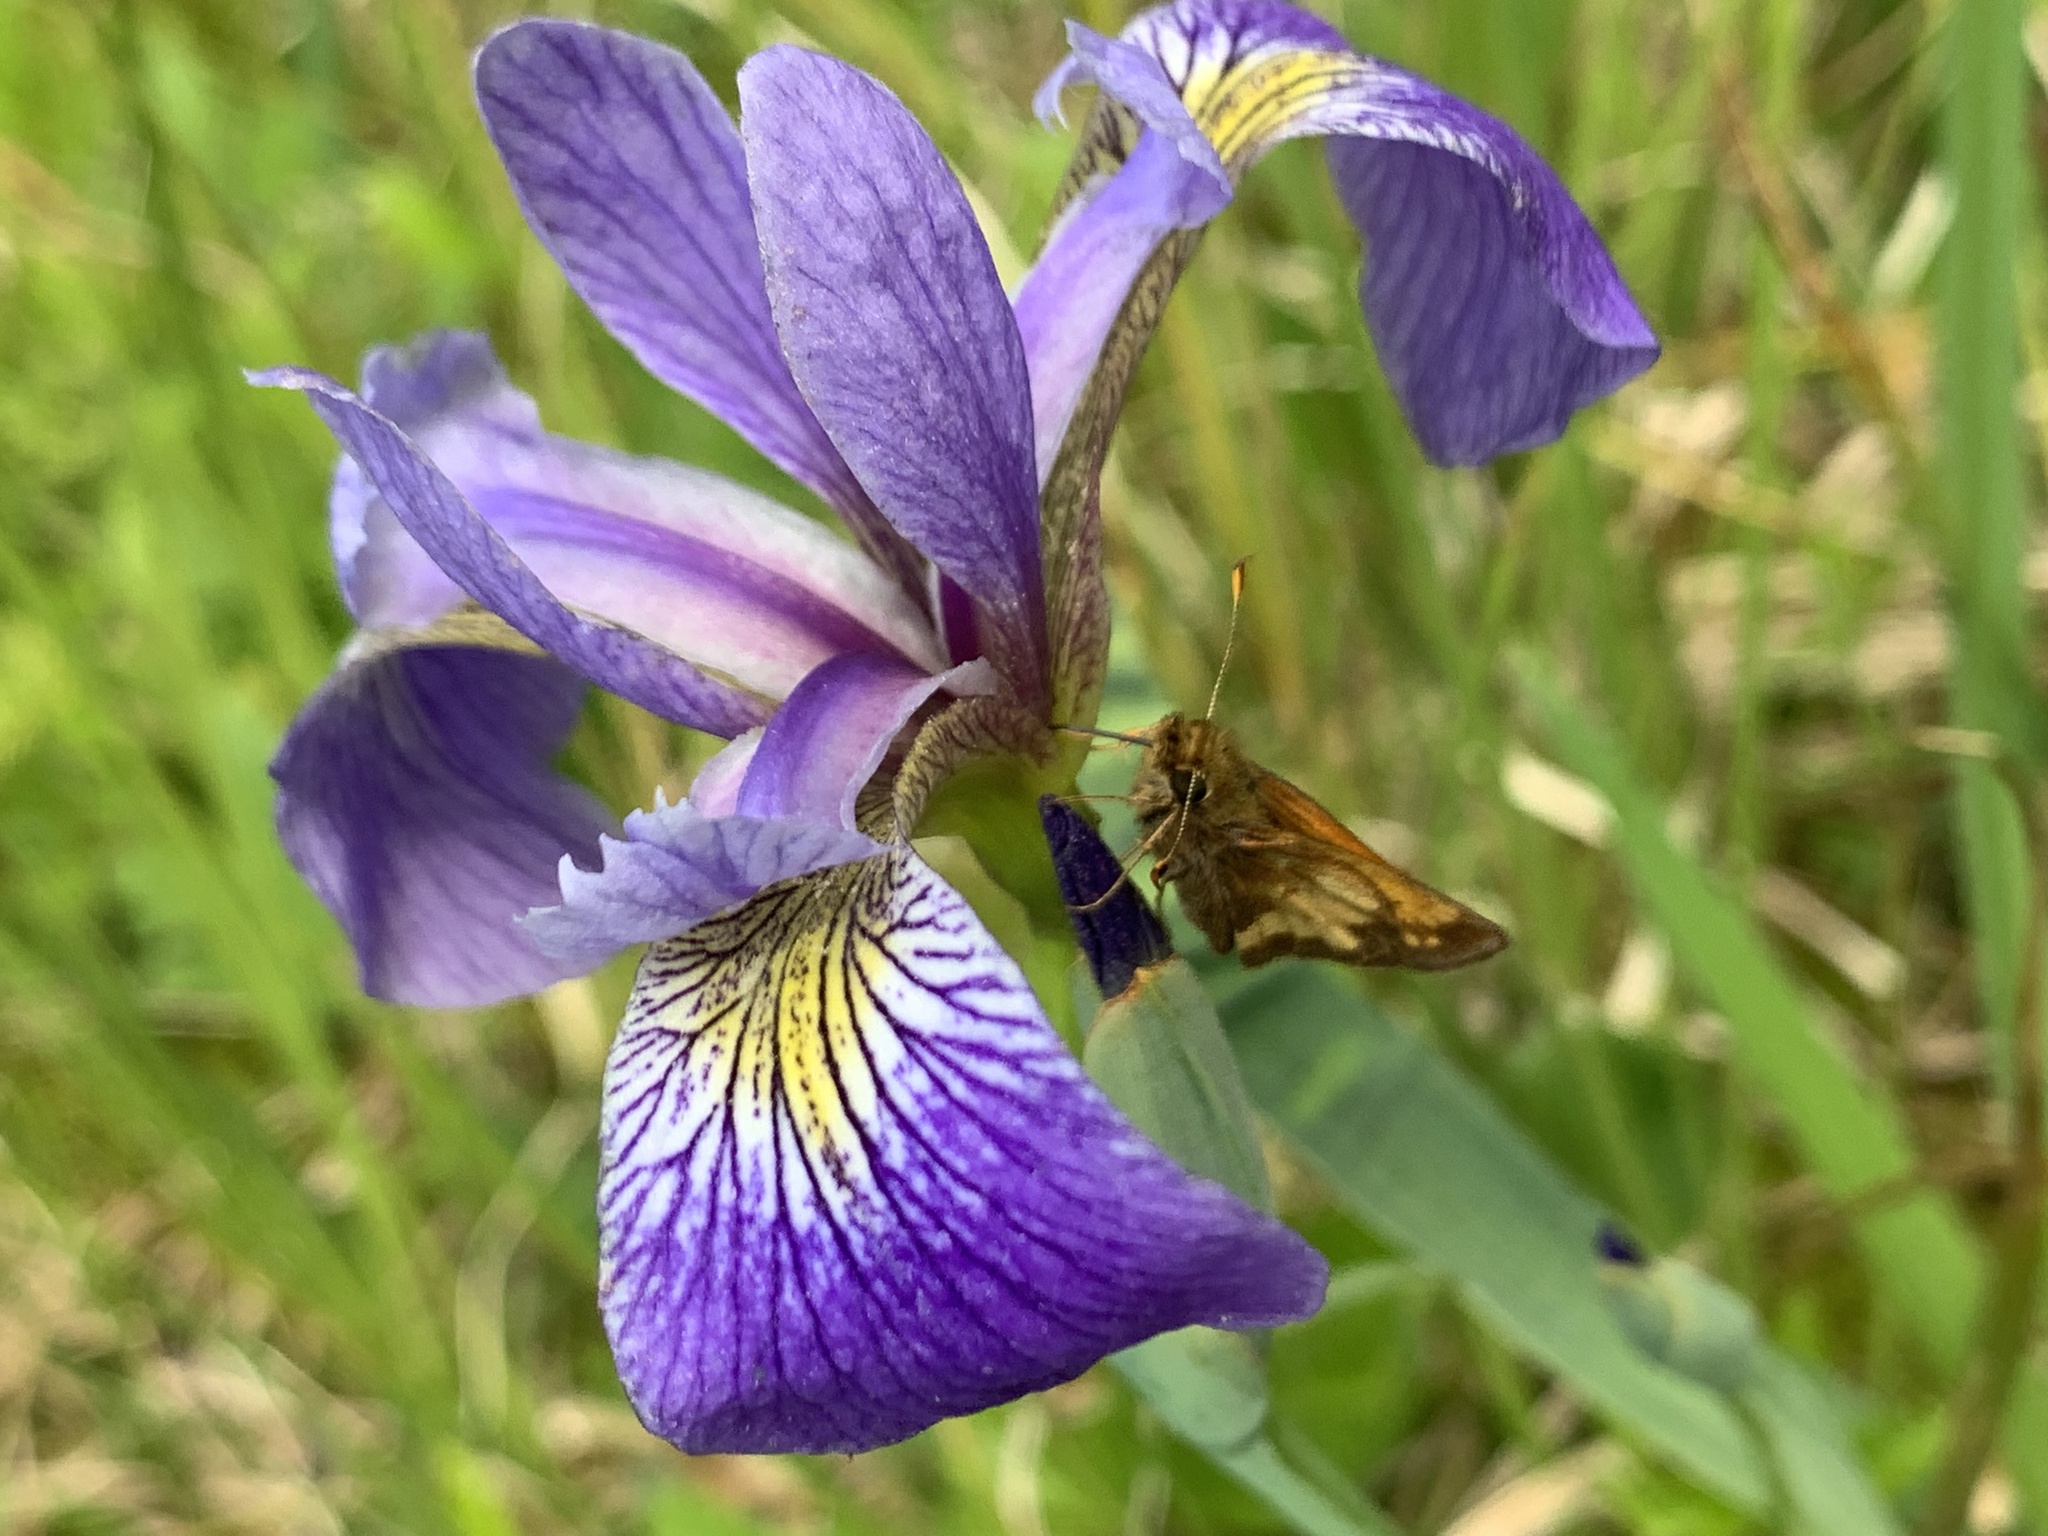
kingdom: Animalia
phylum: Arthropoda
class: Insecta
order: Lepidoptera
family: Hesperiidae
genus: Lon
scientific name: Lon hobomok
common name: Hobomok skipper
